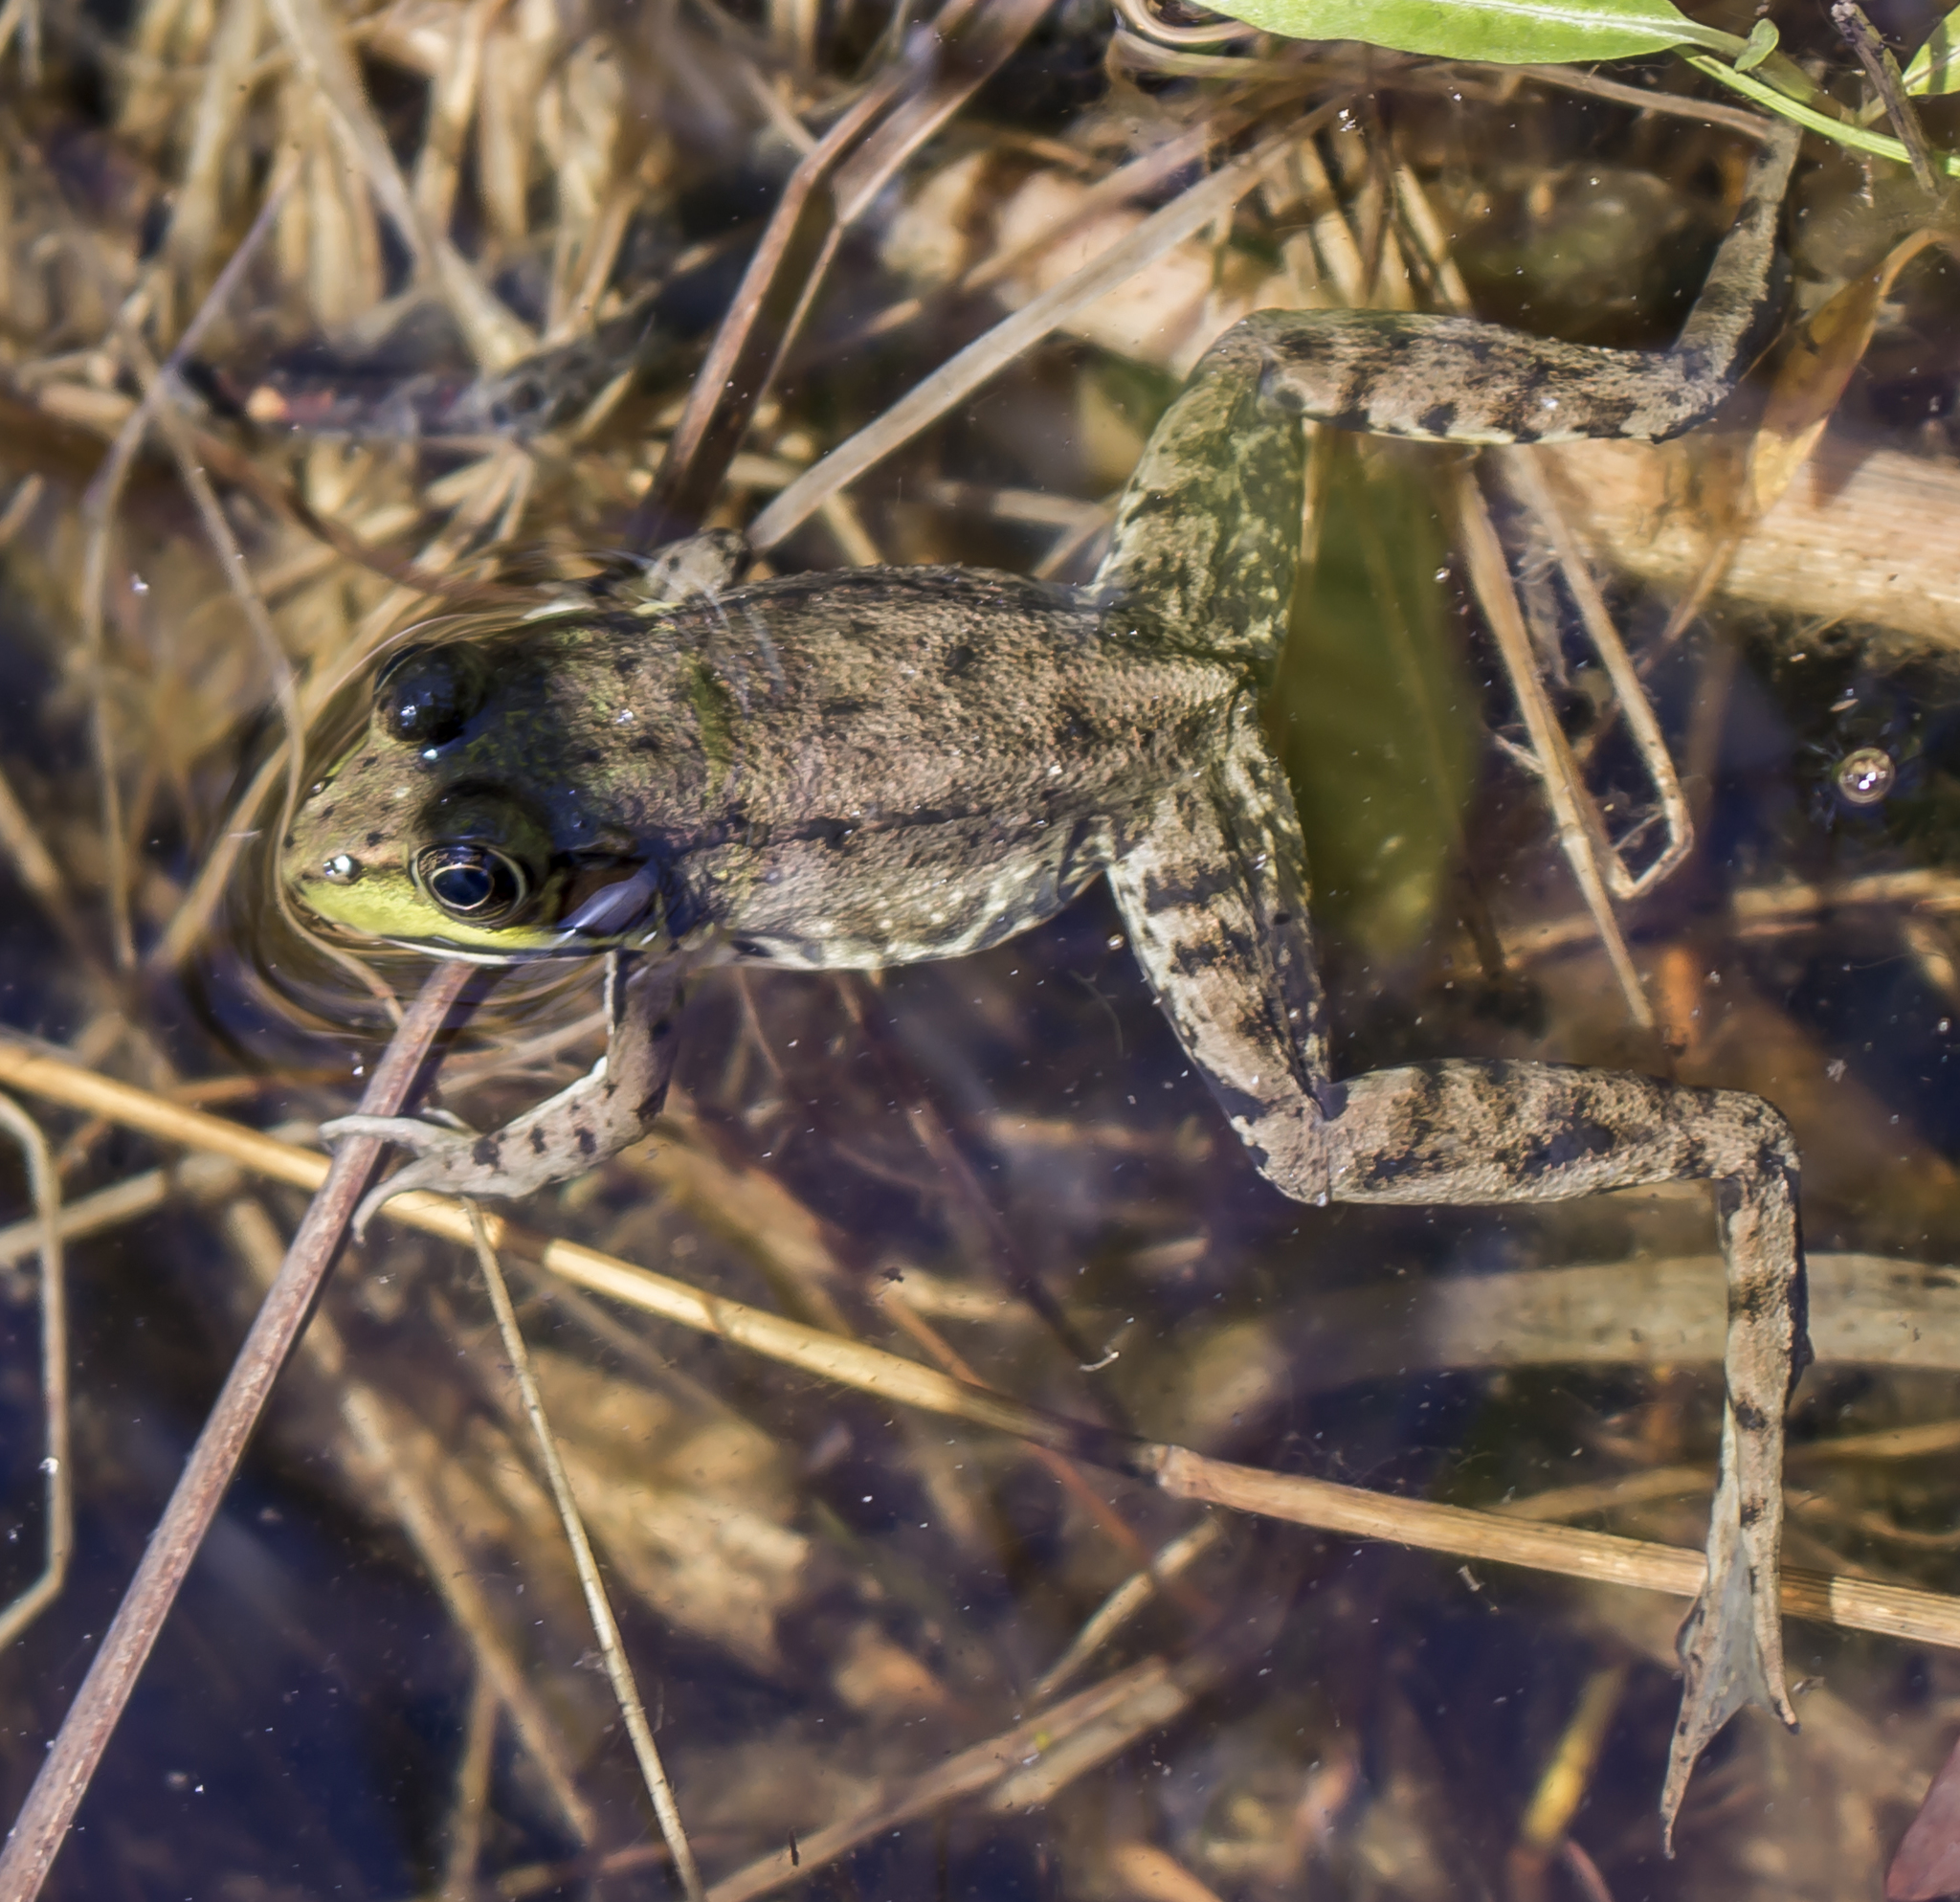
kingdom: Animalia
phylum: Chordata
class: Amphibia
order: Anura
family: Ranidae
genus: Lithobates
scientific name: Lithobates clamitans
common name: Green frog
